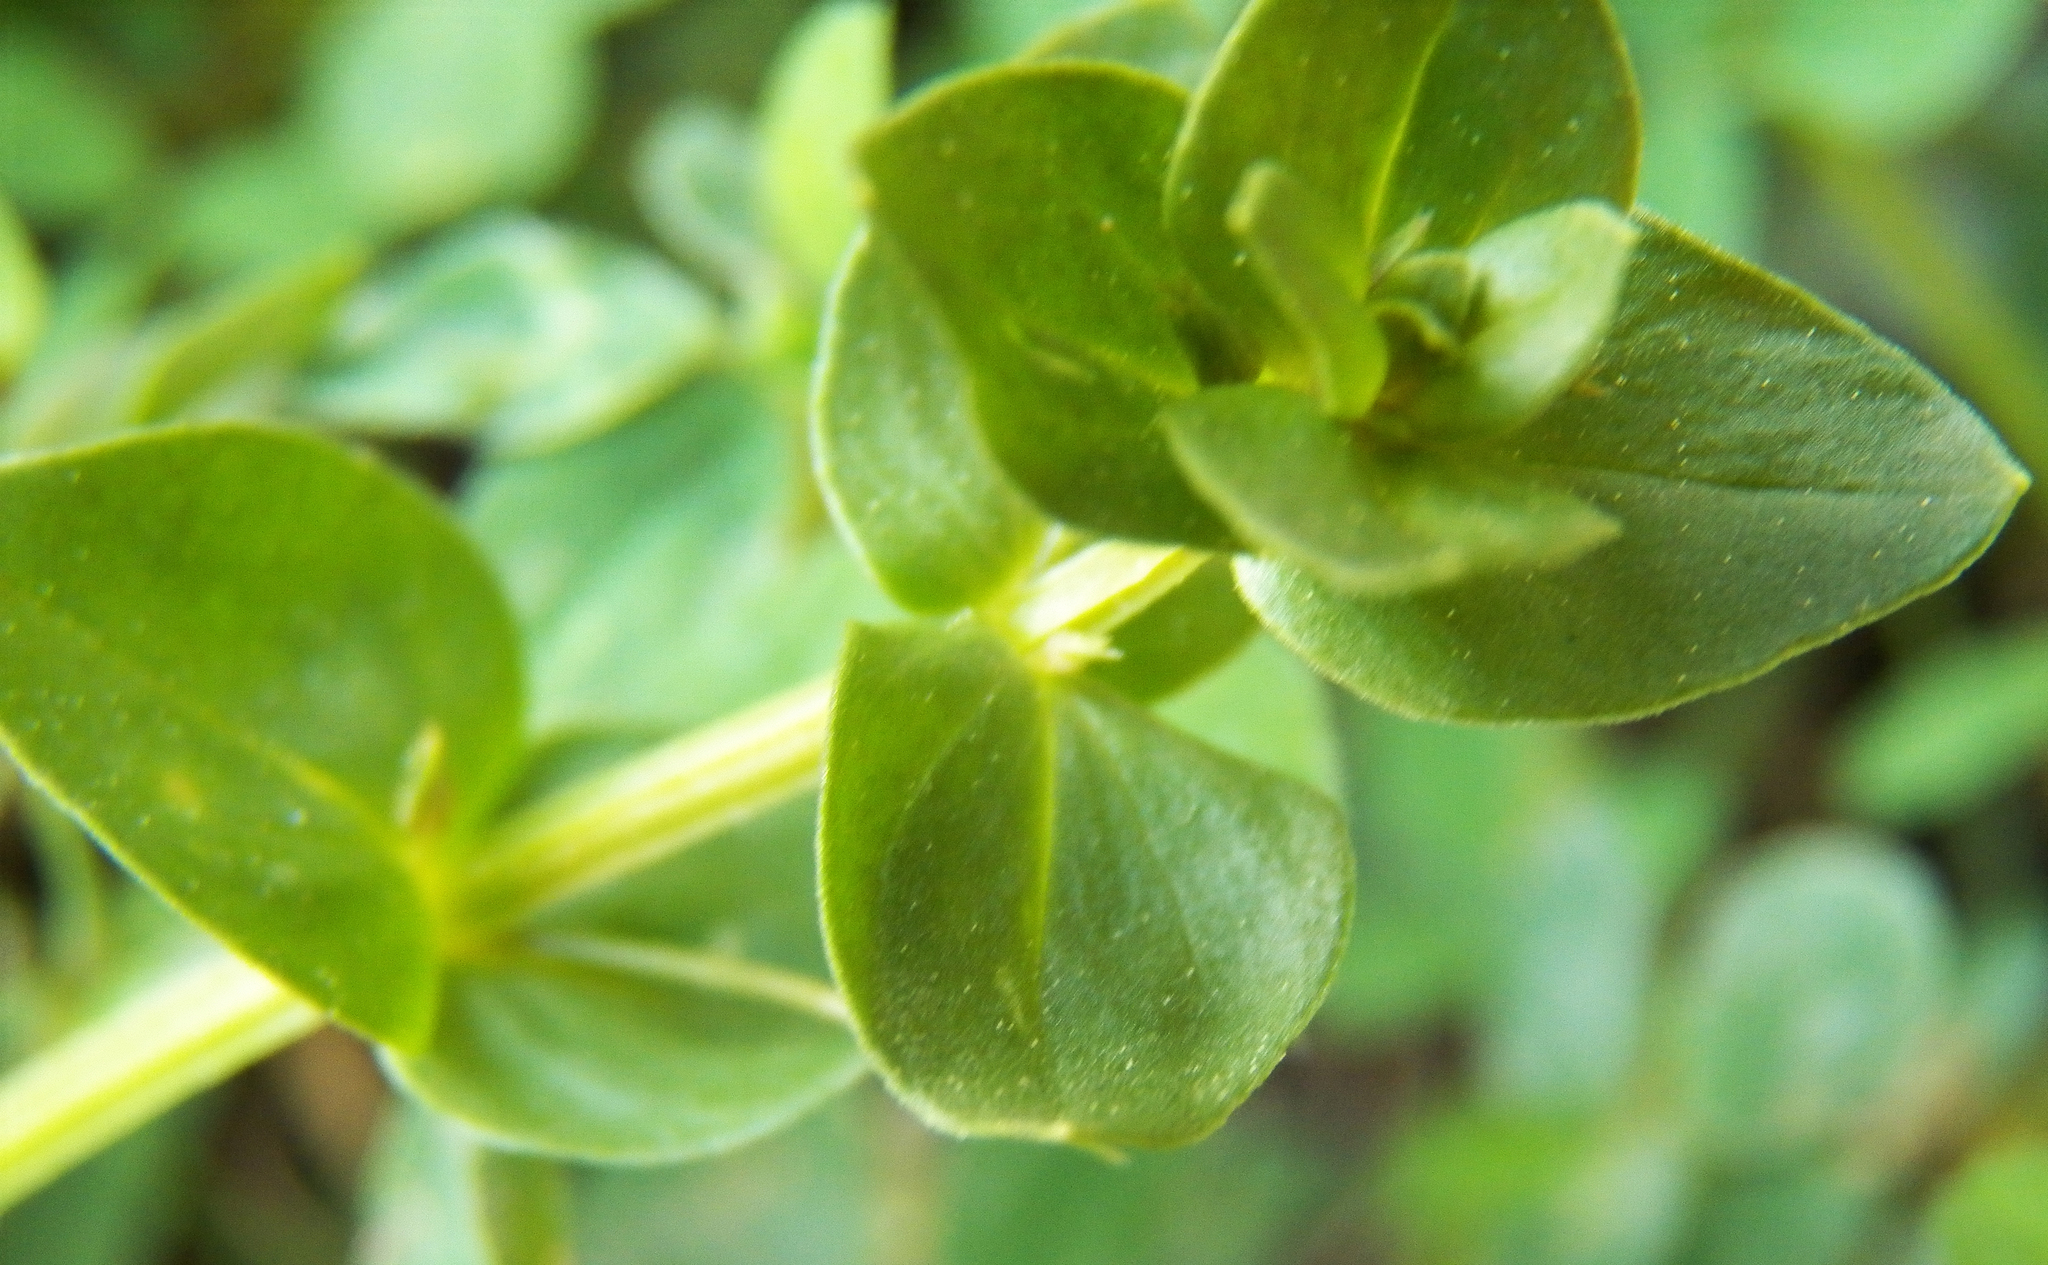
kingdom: Plantae
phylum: Tracheophyta
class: Magnoliopsida
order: Ericales
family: Primulaceae
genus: Lysimachia
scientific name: Lysimachia arvensis
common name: Scarlet pimpernel
